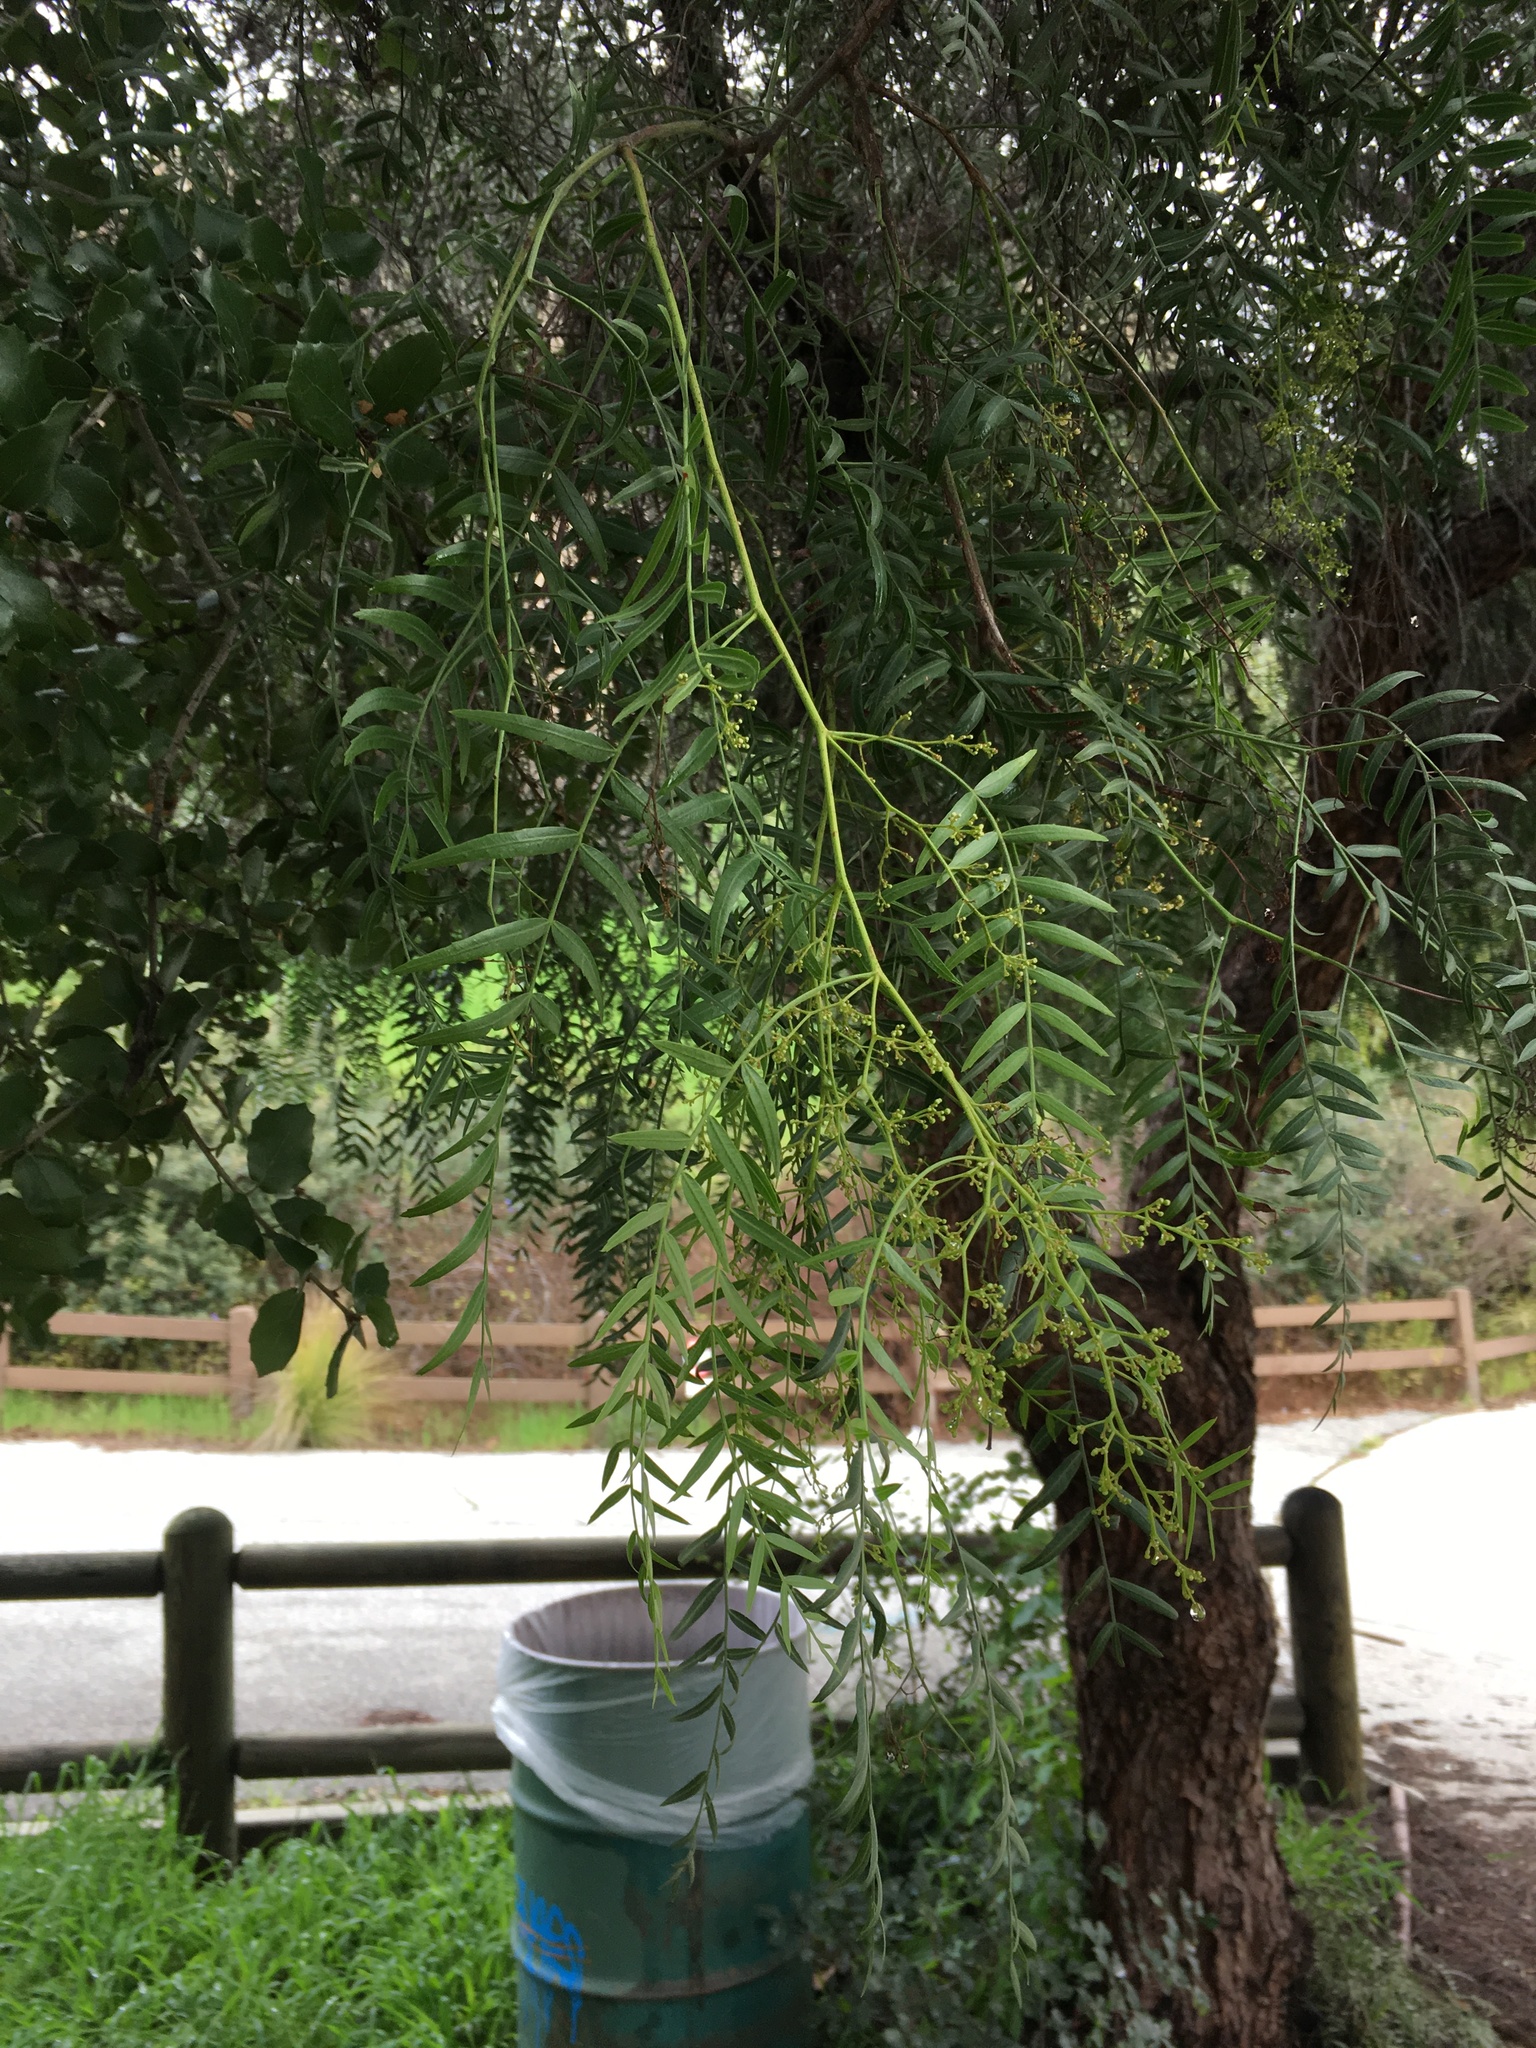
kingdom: Plantae
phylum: Tracheophyta
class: Magnoliopsida
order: Sapindales
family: Anacardiaceae
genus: Schinus
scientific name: Schinus molle
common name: Peruvian peppertree
